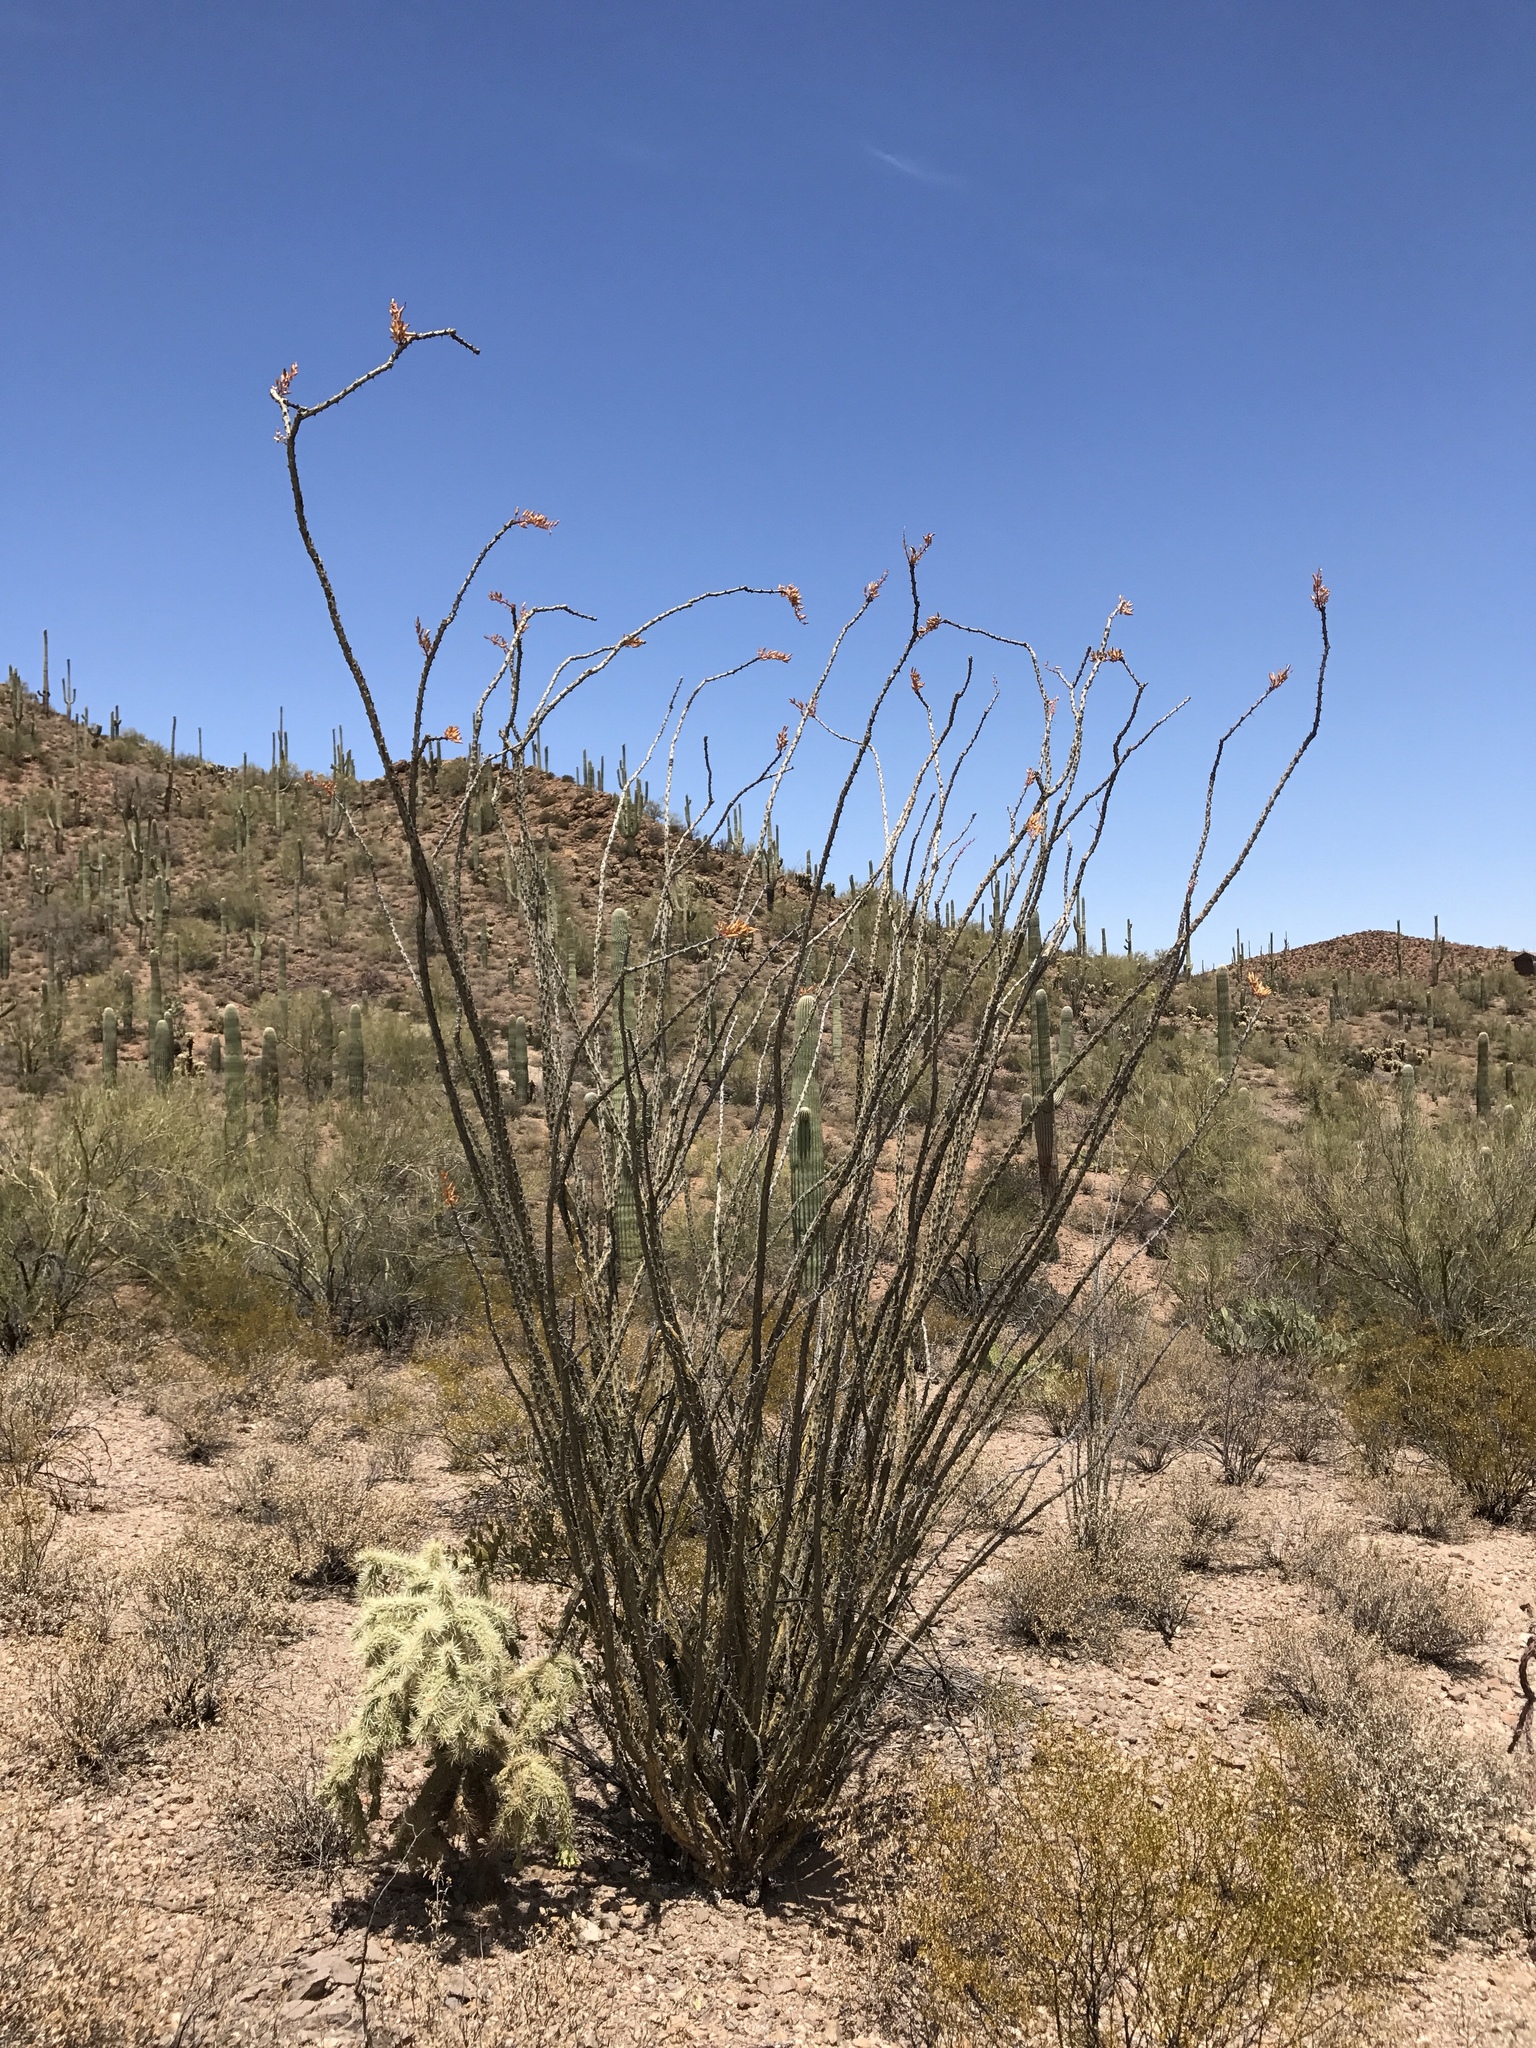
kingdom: Plantae
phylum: Tracheophyta
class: Magnoliopsida
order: Ericales
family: Fouquieriaceae
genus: Fouquieria
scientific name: Fouquieria splendens
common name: Vine-cactus
